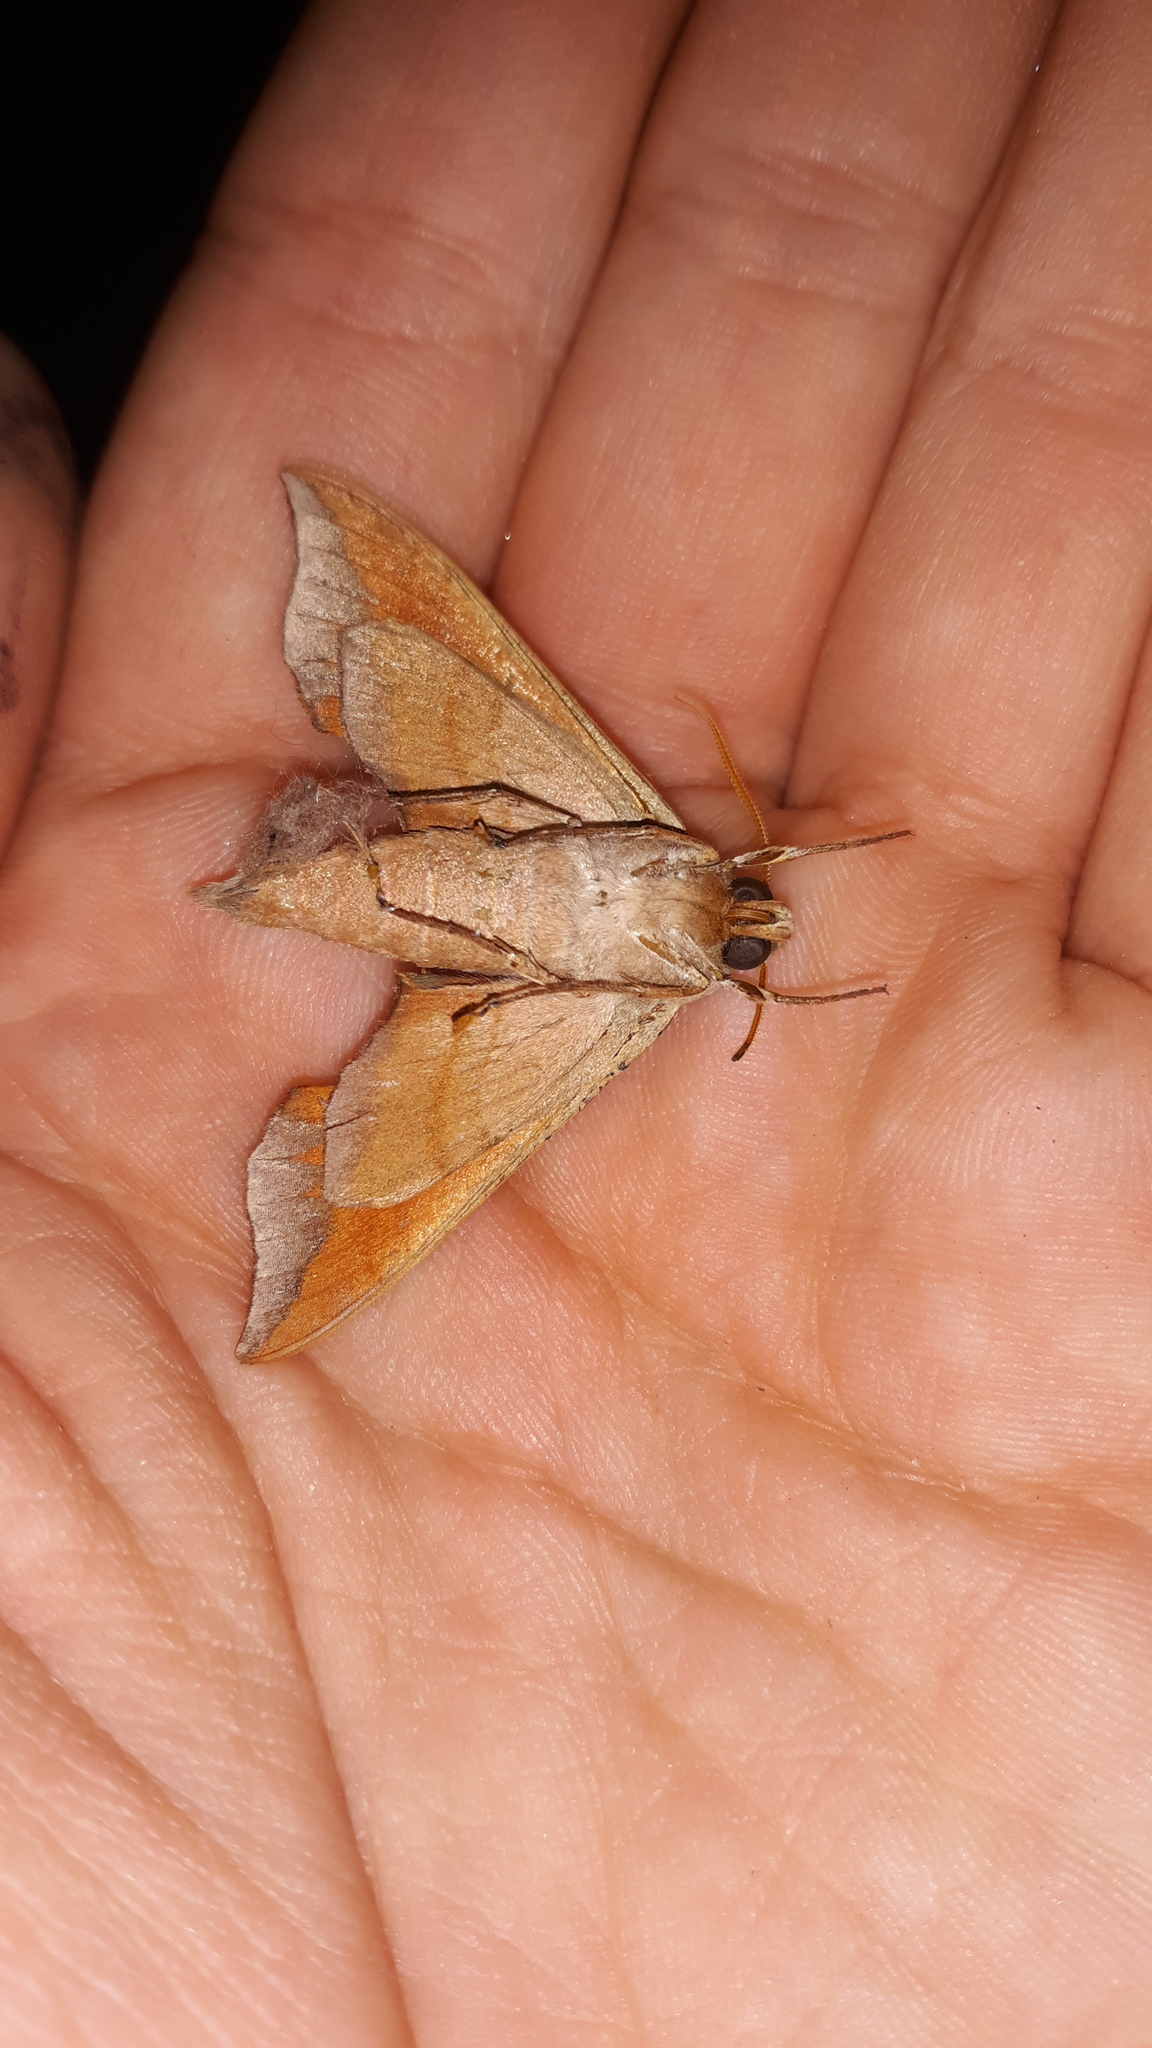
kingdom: Animalia
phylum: Arthropoda
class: Insecta
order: Lepidoptera
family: Sphingidae
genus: Darapsa
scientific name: Darapsa myron
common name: Hog sphinx
